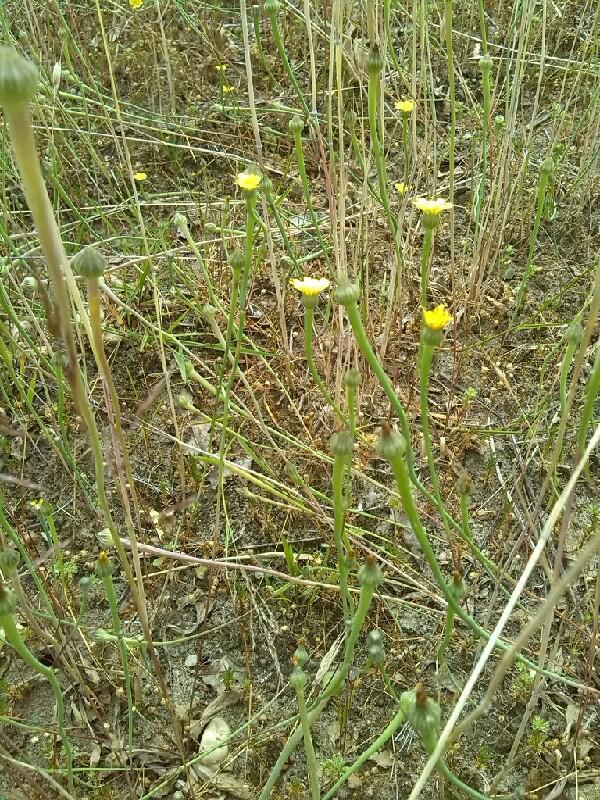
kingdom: Plantae
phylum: Tracheophyta
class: Magnoliopsida
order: Asterales
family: Asteraceae
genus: Arnoseris
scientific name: Arnoseris minima
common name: Lamb's succory
